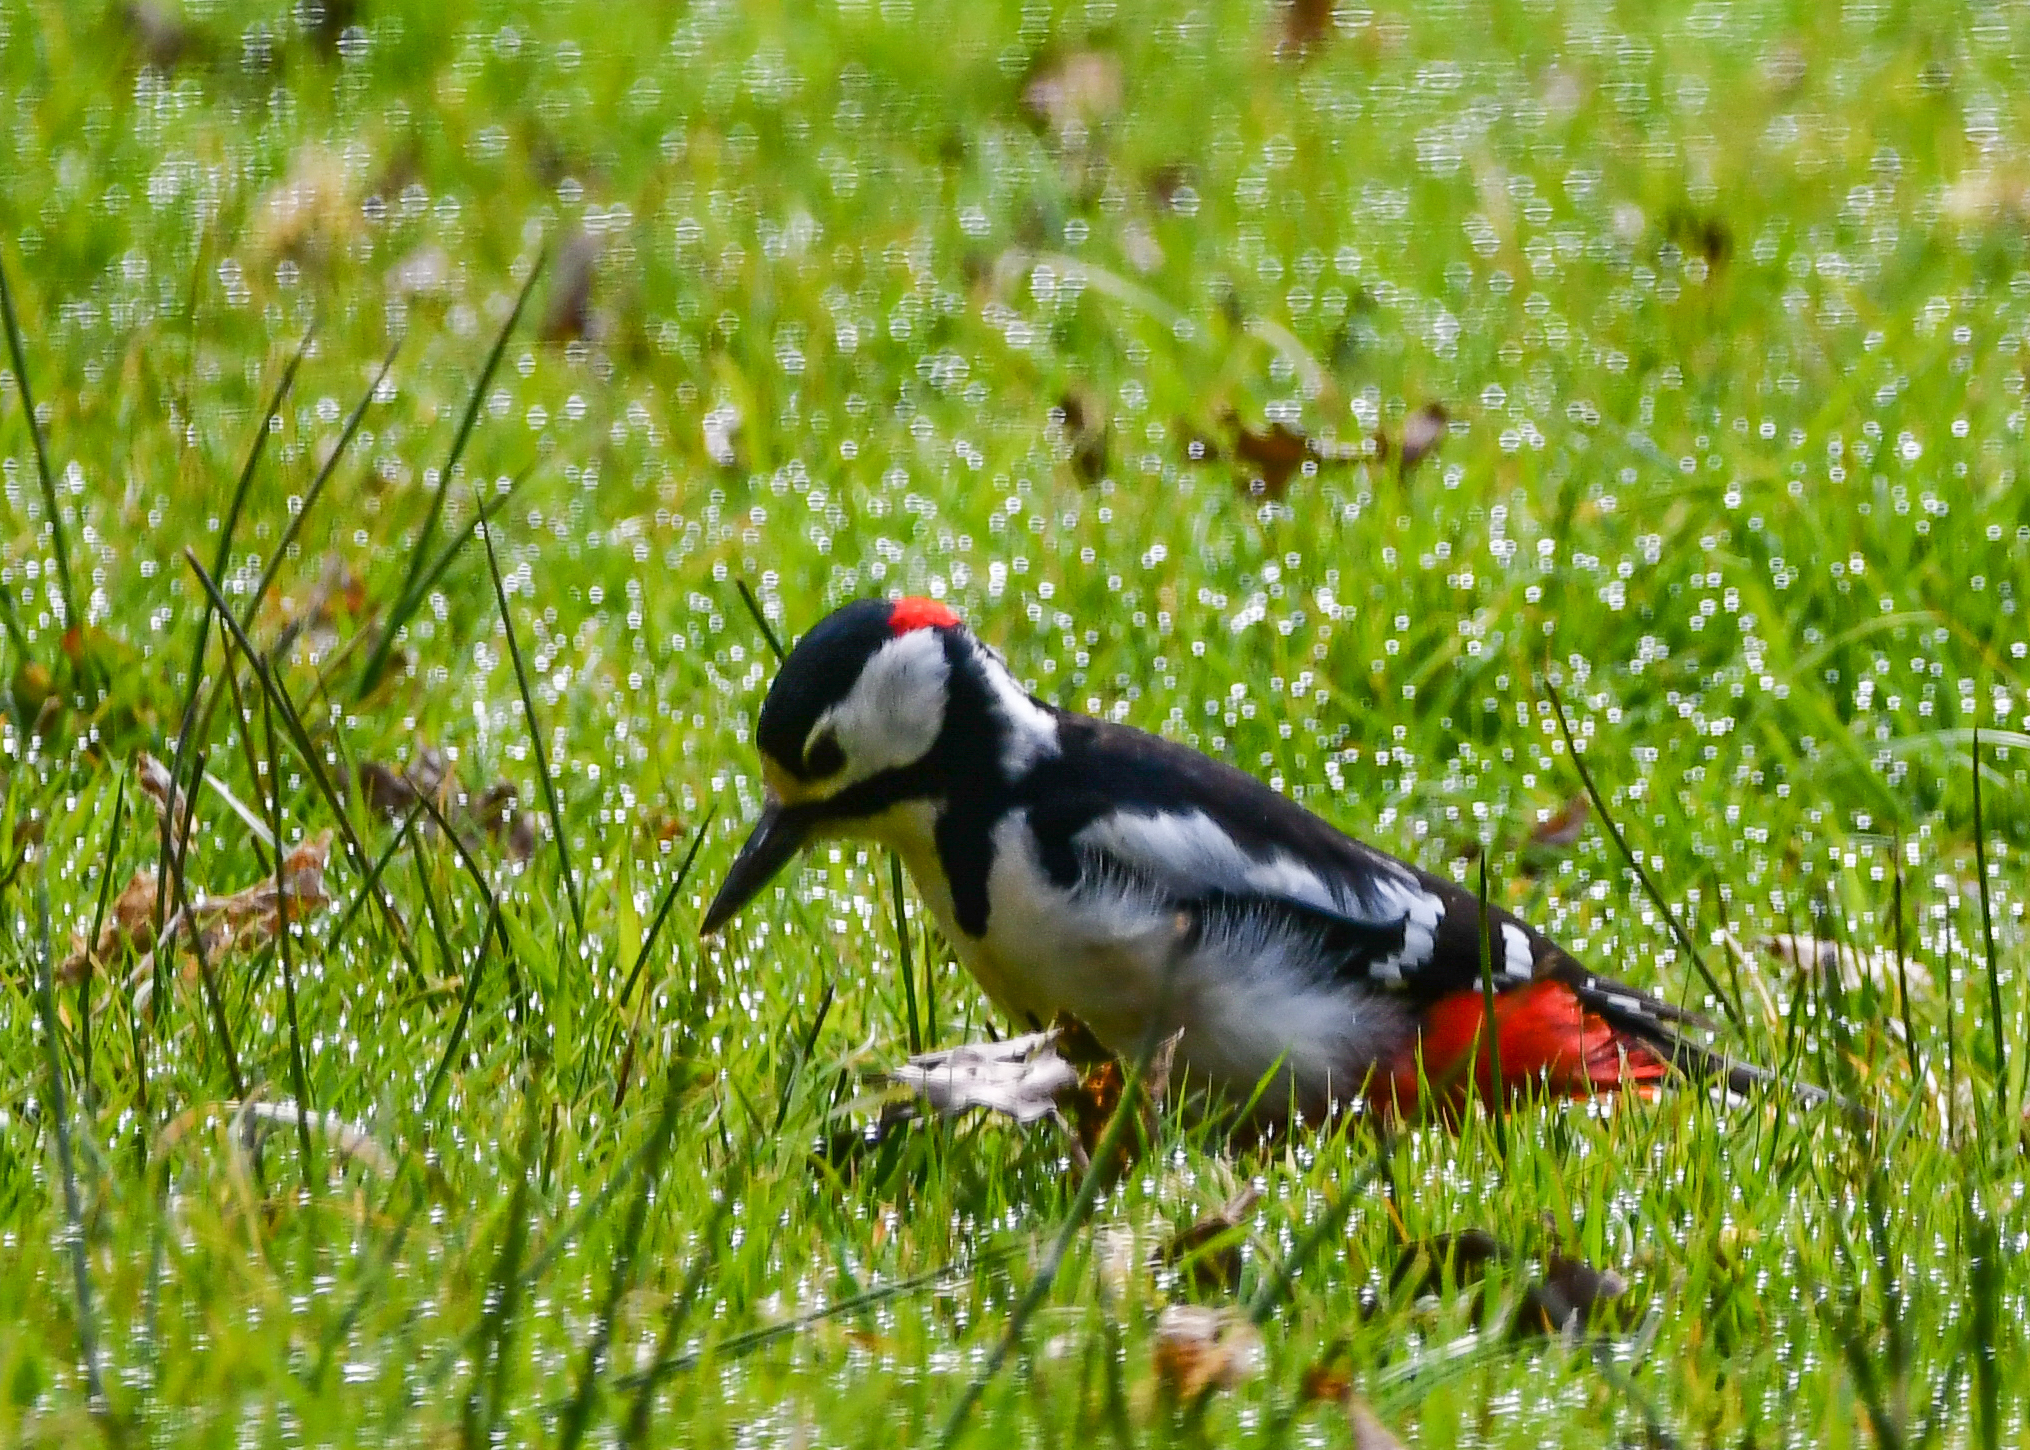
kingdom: Animalia
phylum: Chordata
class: Aves
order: Piciformes
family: Picidae
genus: Dendrocopos
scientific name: Dendrocopos major
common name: Great spotted woodpecker
